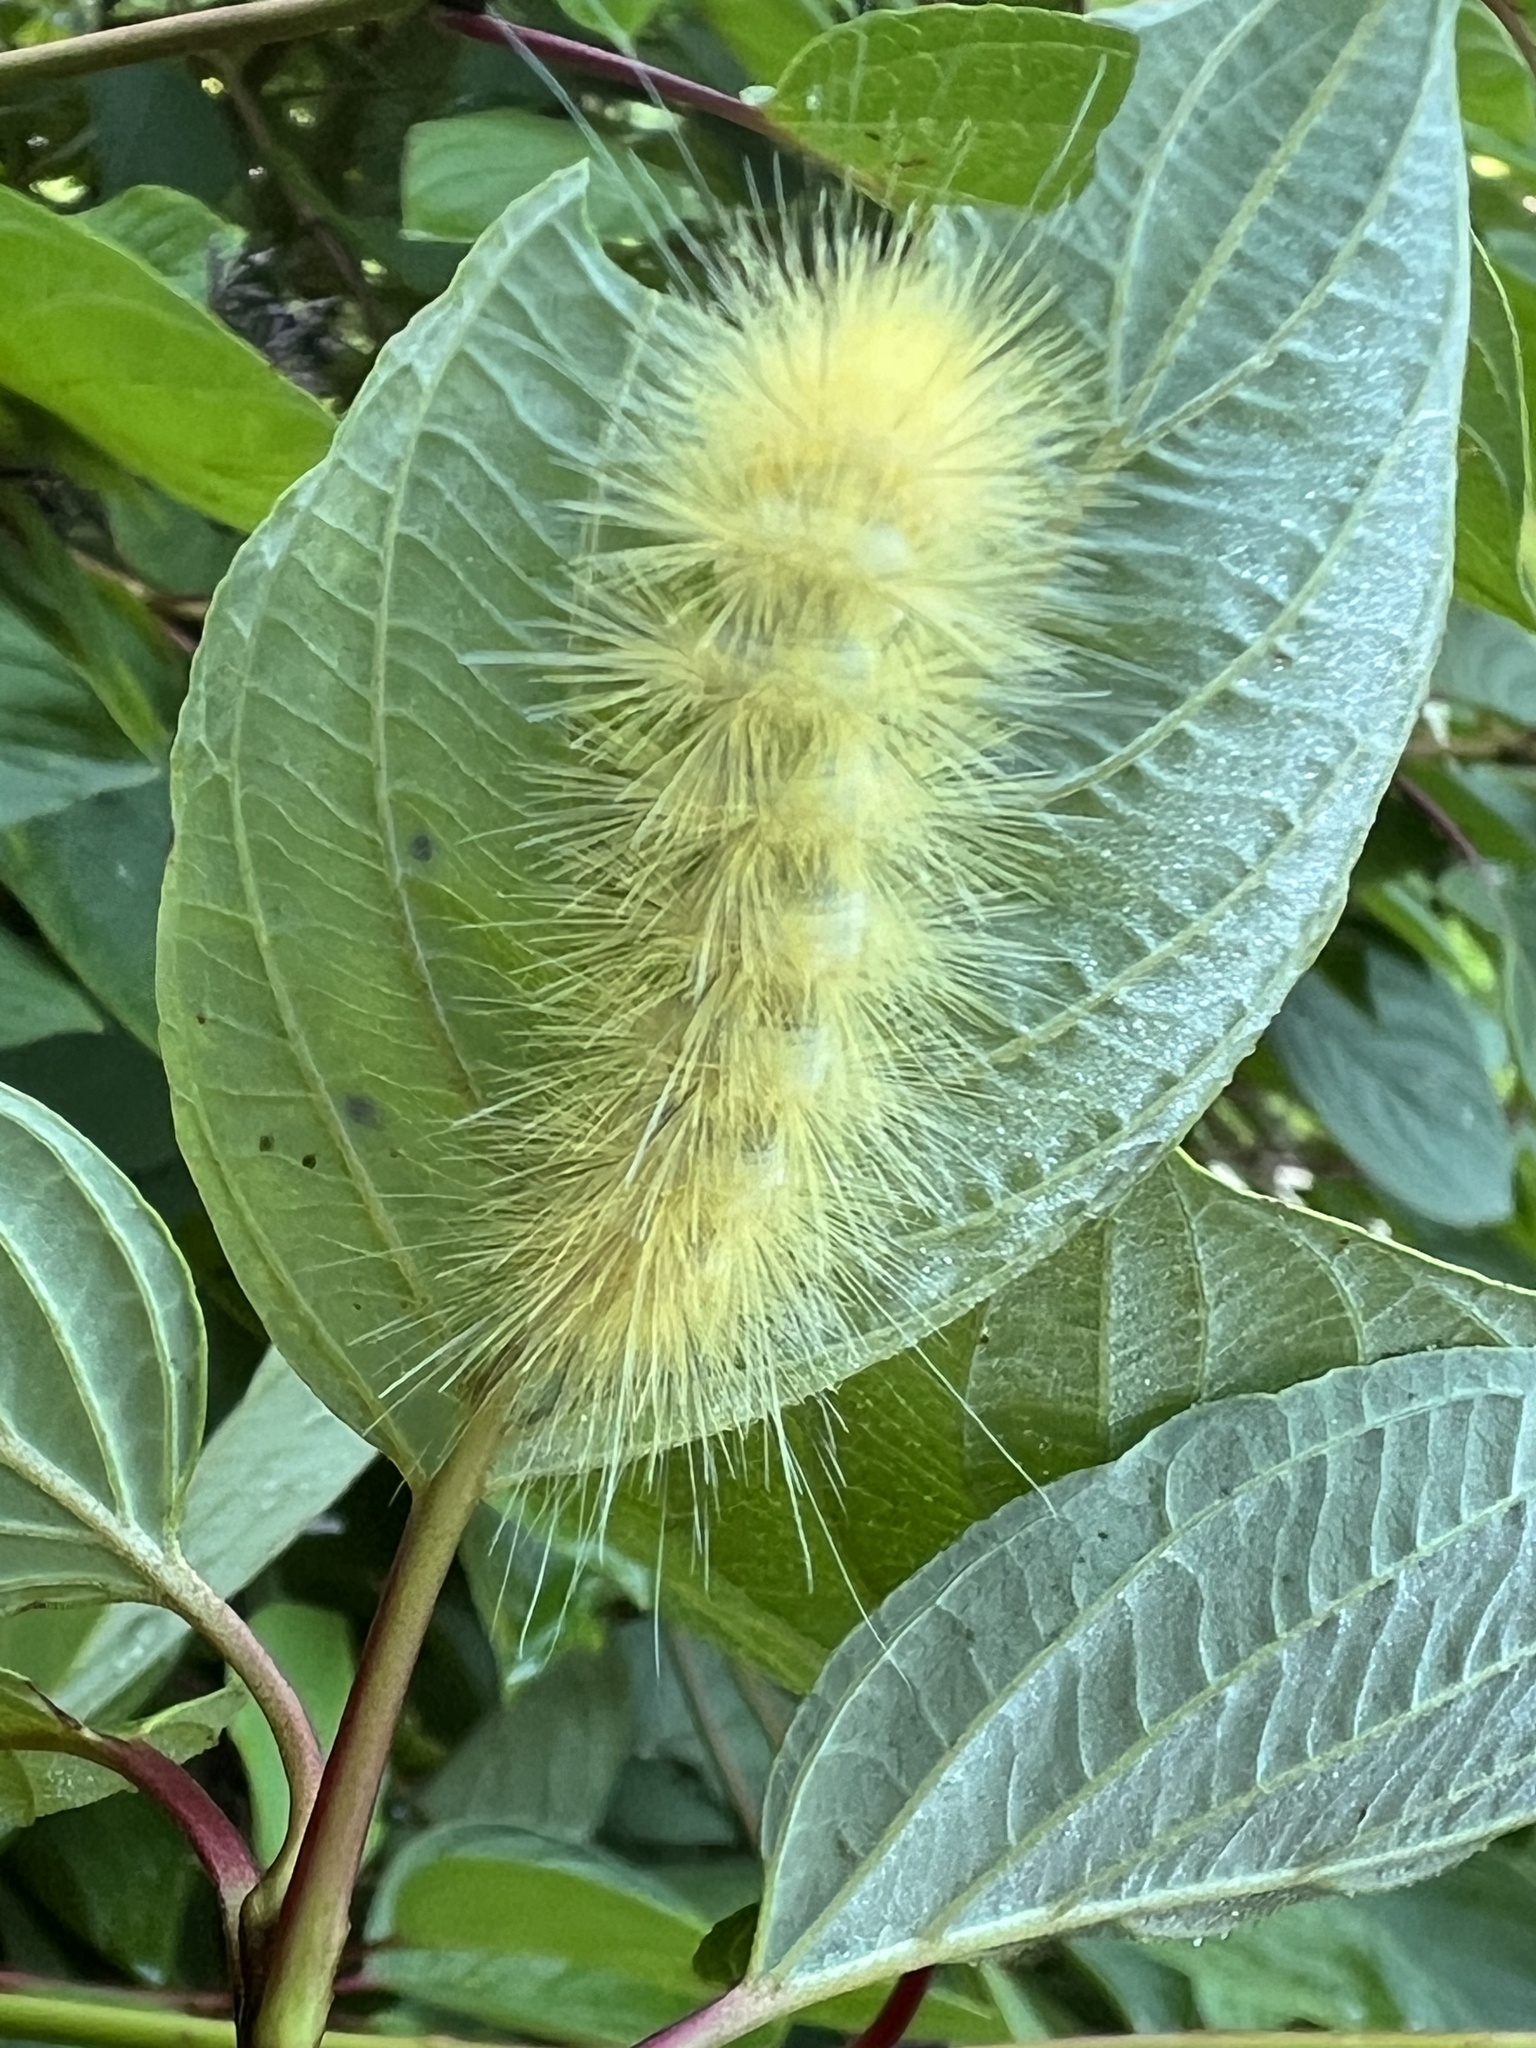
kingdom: Animalia
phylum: Arthropoda
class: Insecta
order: Lepidoptera
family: Erebidae
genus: Spilosoma
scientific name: Spilosoma virginica
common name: Virginia tiger moth
